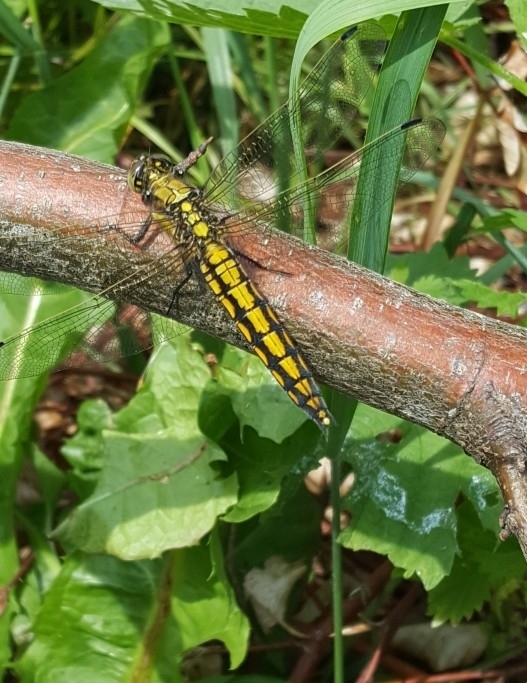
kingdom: Animalia
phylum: Arthropoda
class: Insecta
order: Odonata
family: Libellulidae
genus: Orthetrum
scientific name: Orthetrum cancellatum
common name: Black-tailed skimmer
